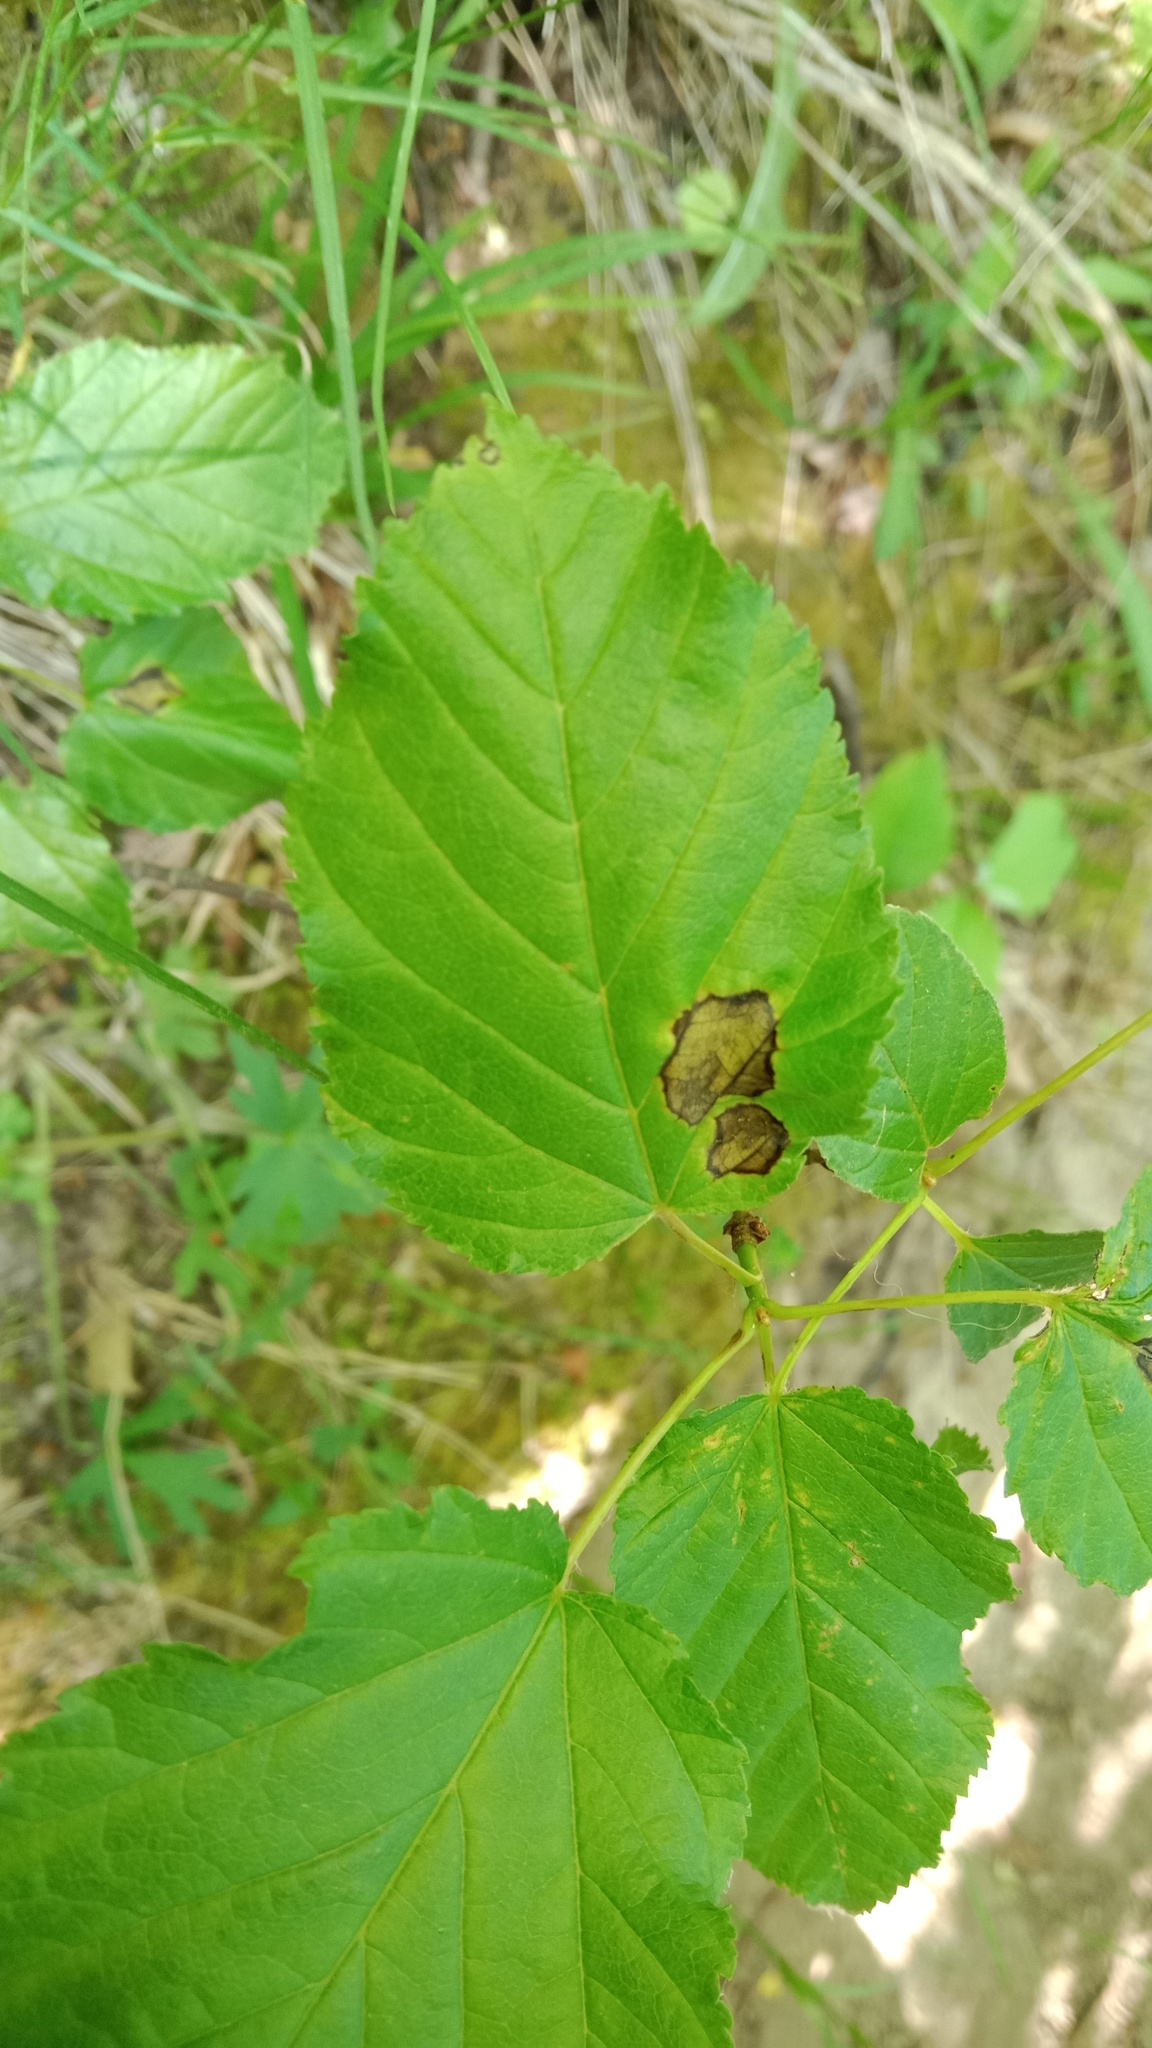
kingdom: Plantae
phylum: Tracheophyta
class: Magnoliopsida
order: Sapindales
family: Sapindaceae
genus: Acer
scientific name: Acer tataricum
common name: Tartar maple
